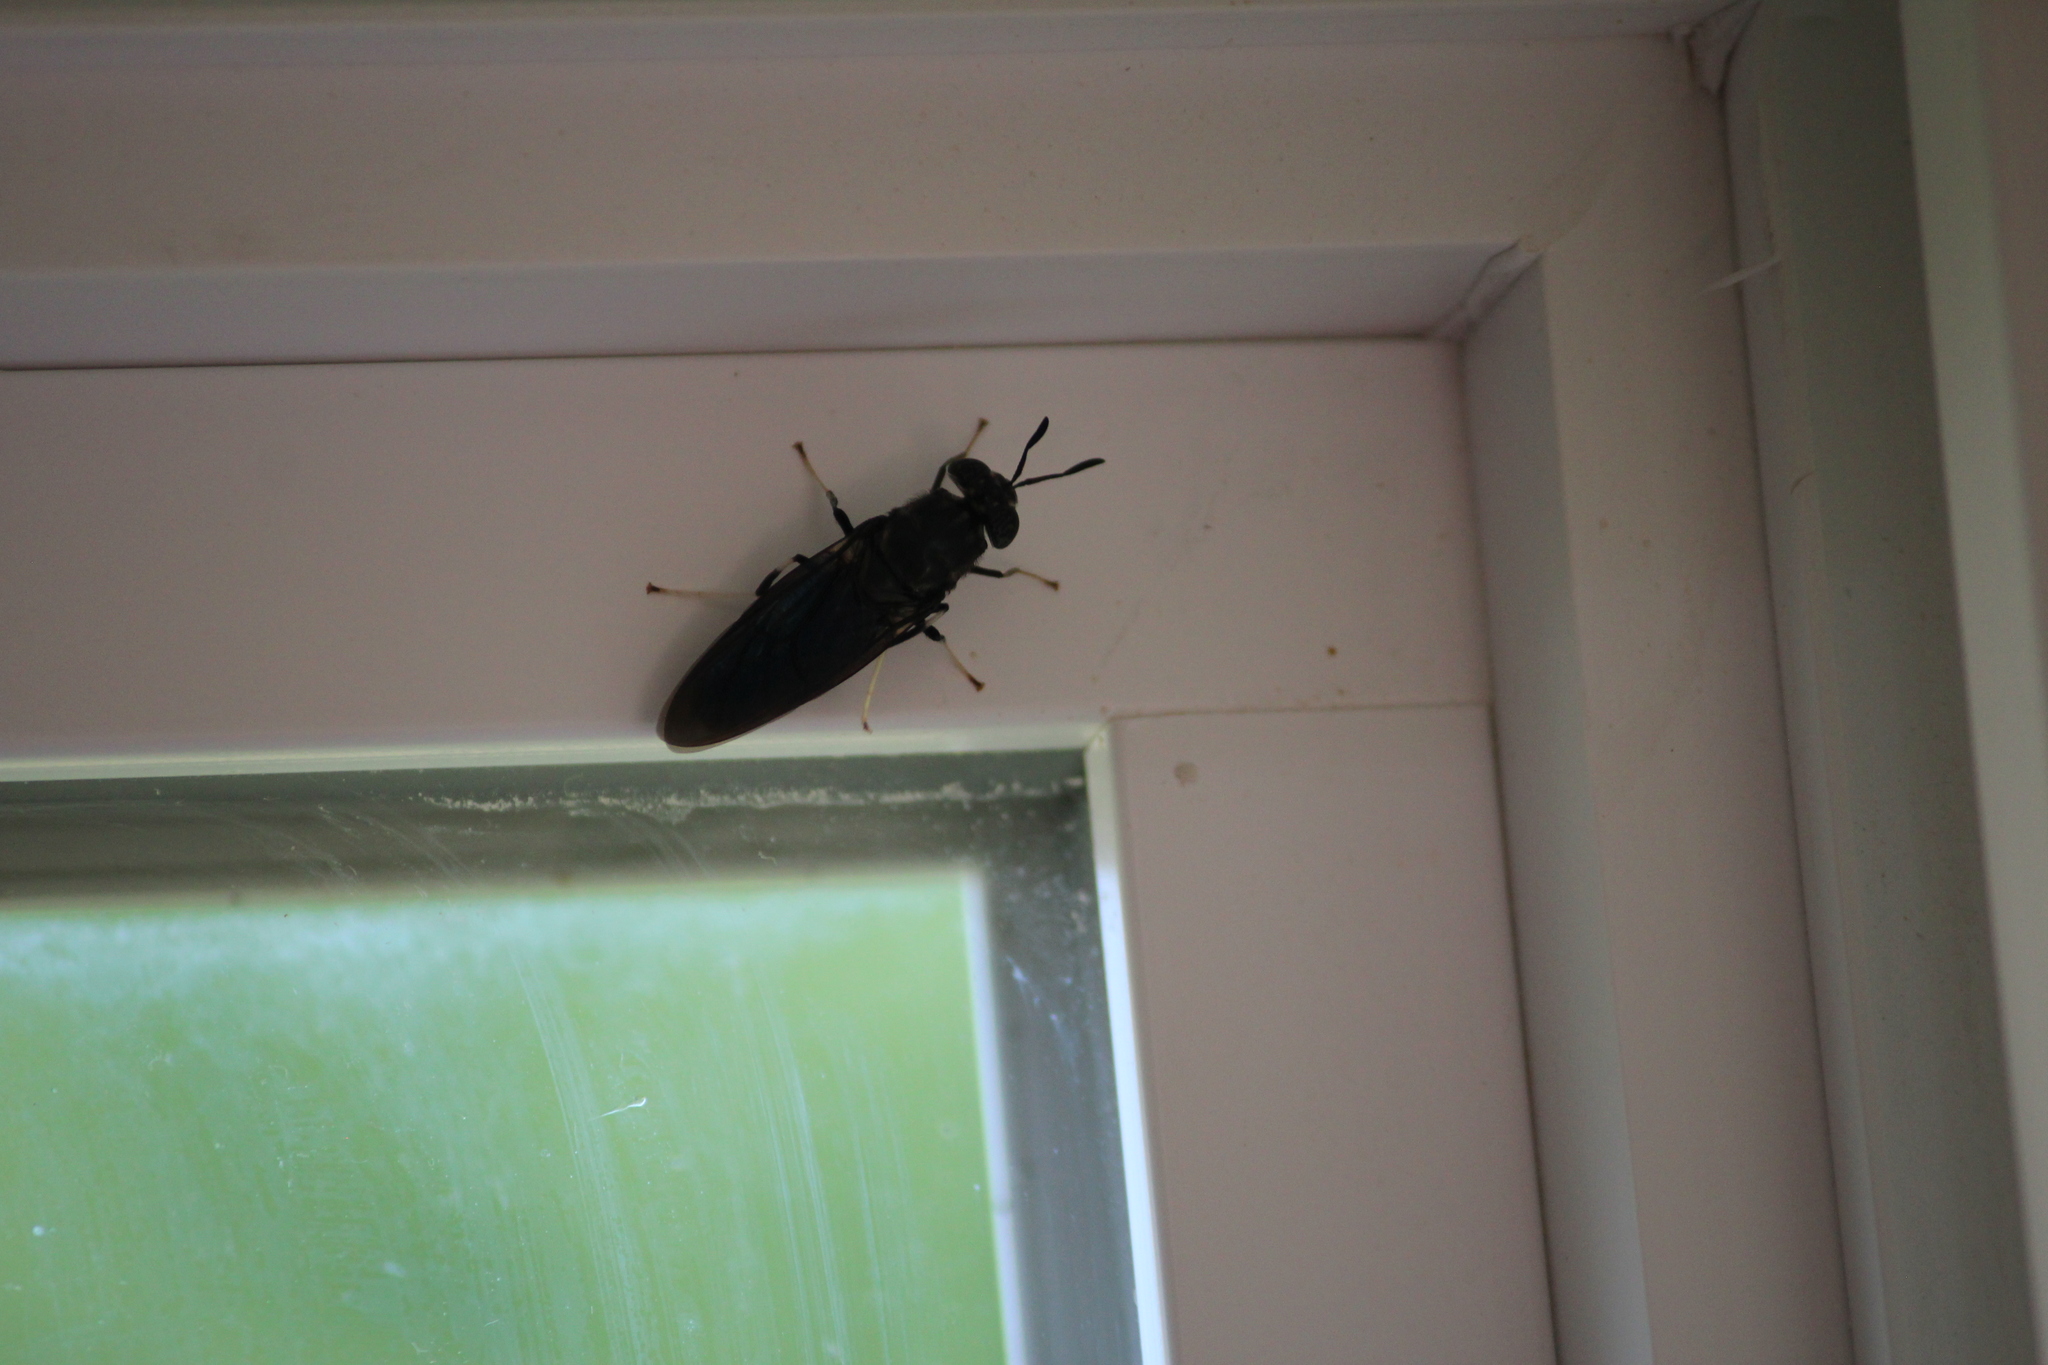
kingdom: Animalia
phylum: Arthropoda
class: Insecta
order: Diptera
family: Stratiomyidae
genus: Hermetia
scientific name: Hermetia illucens
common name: Black soldier fly
